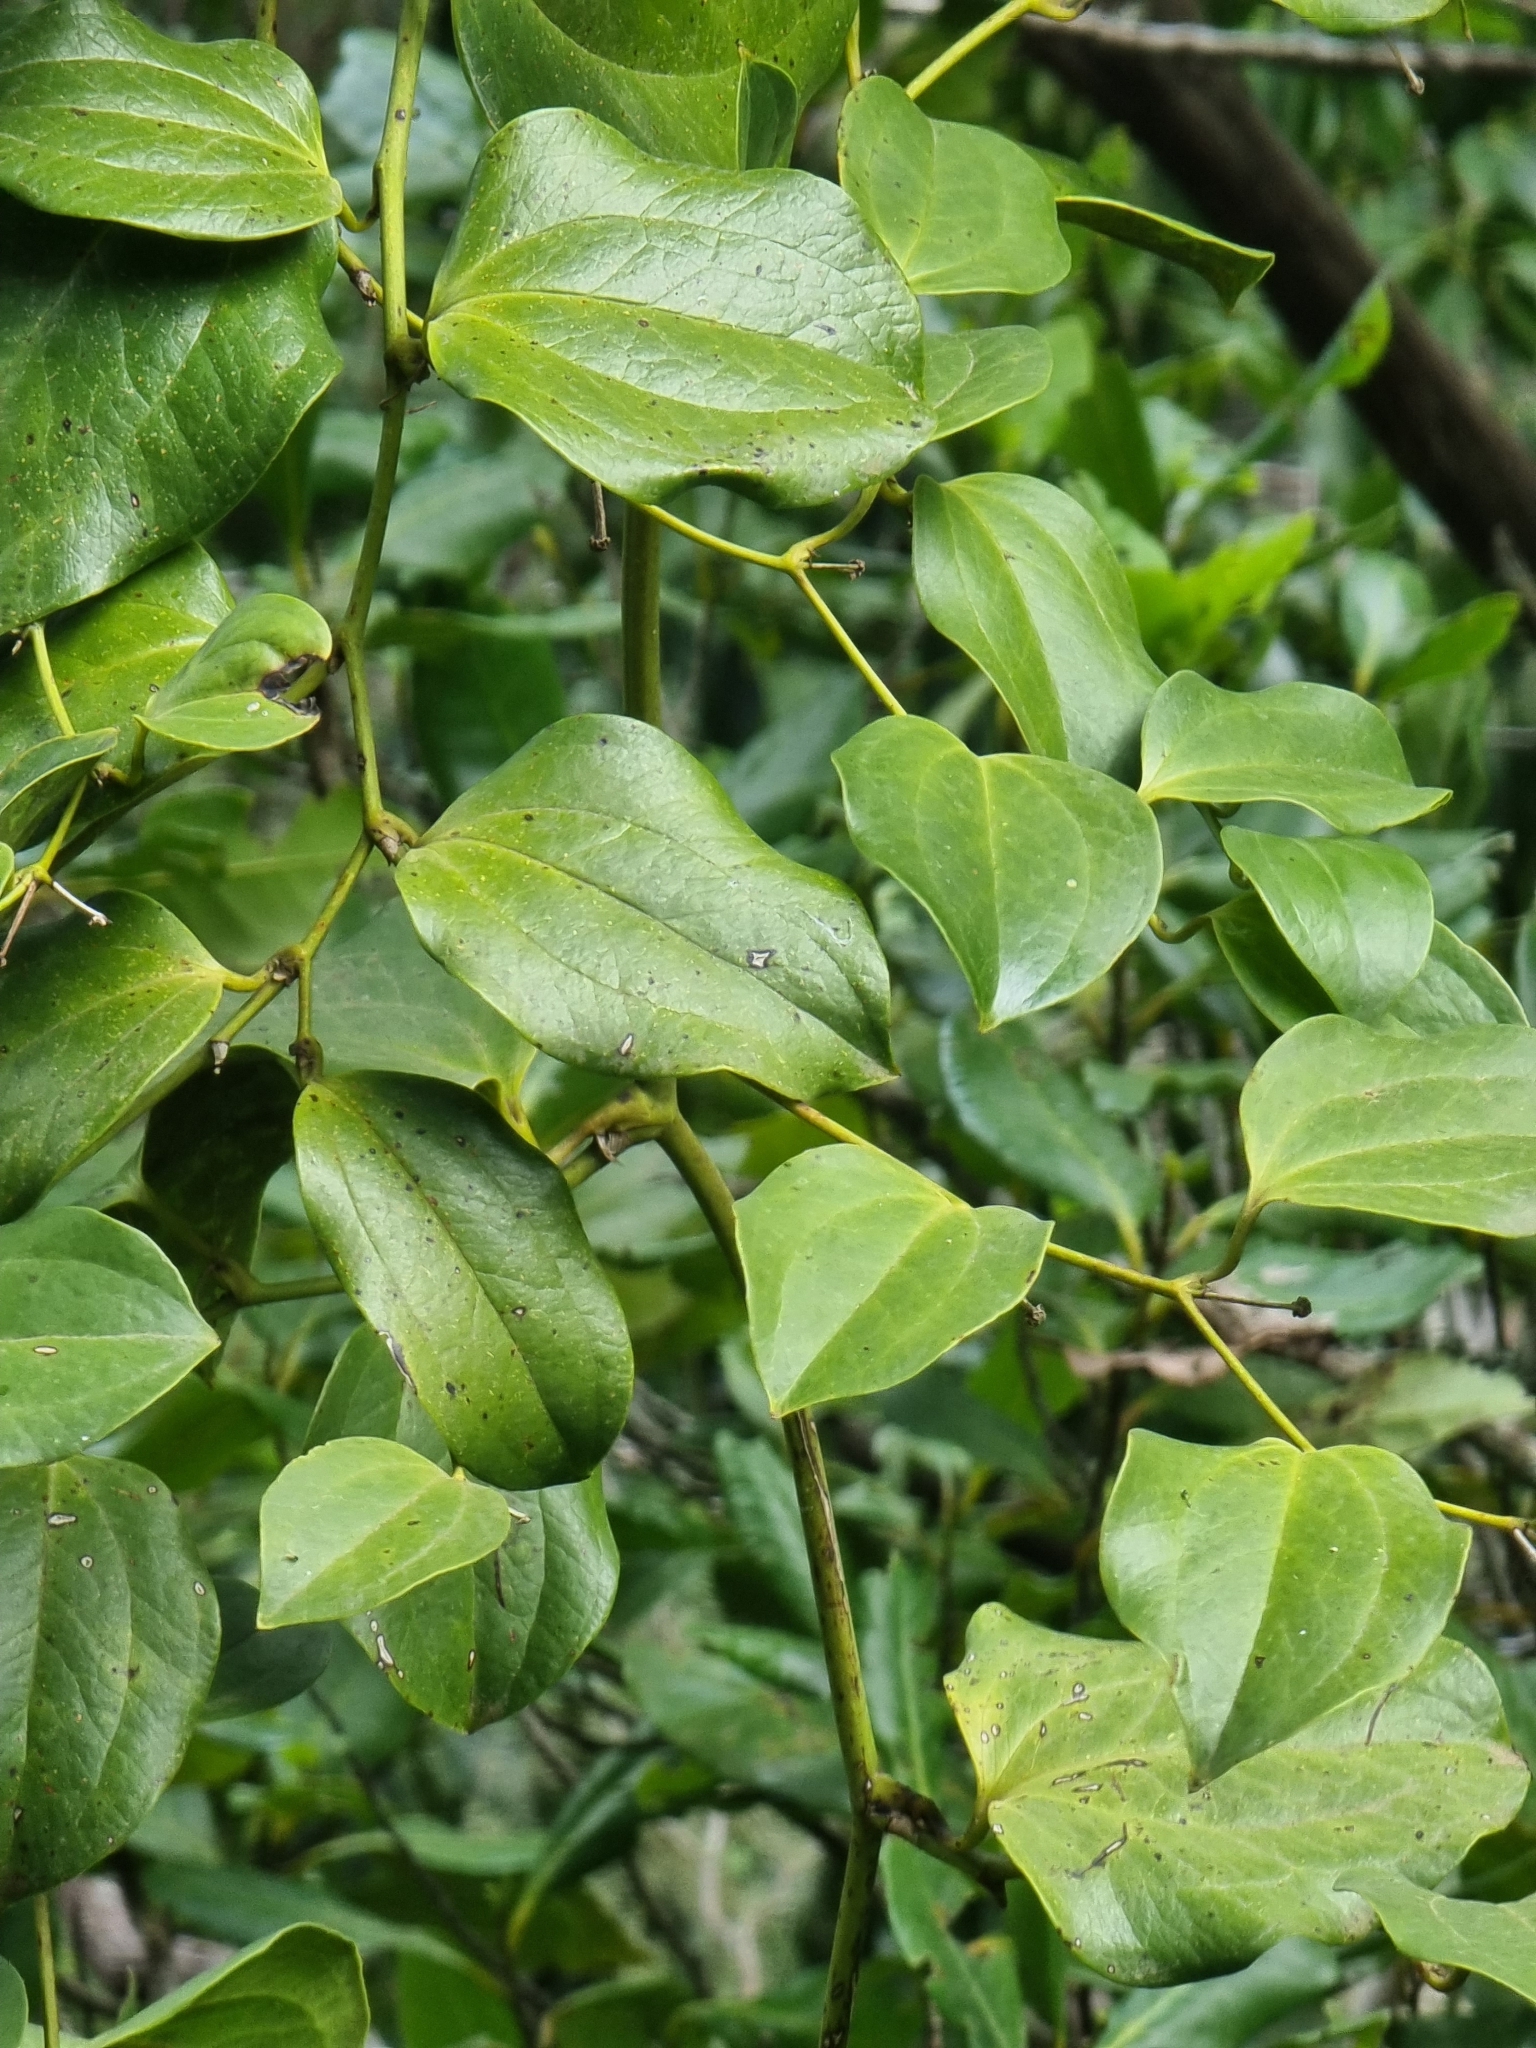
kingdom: Plantae
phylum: Tracheophyta
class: Liliopsida
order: Liliales
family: Smilacaceae
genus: Smilax
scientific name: Smilax canariensis
